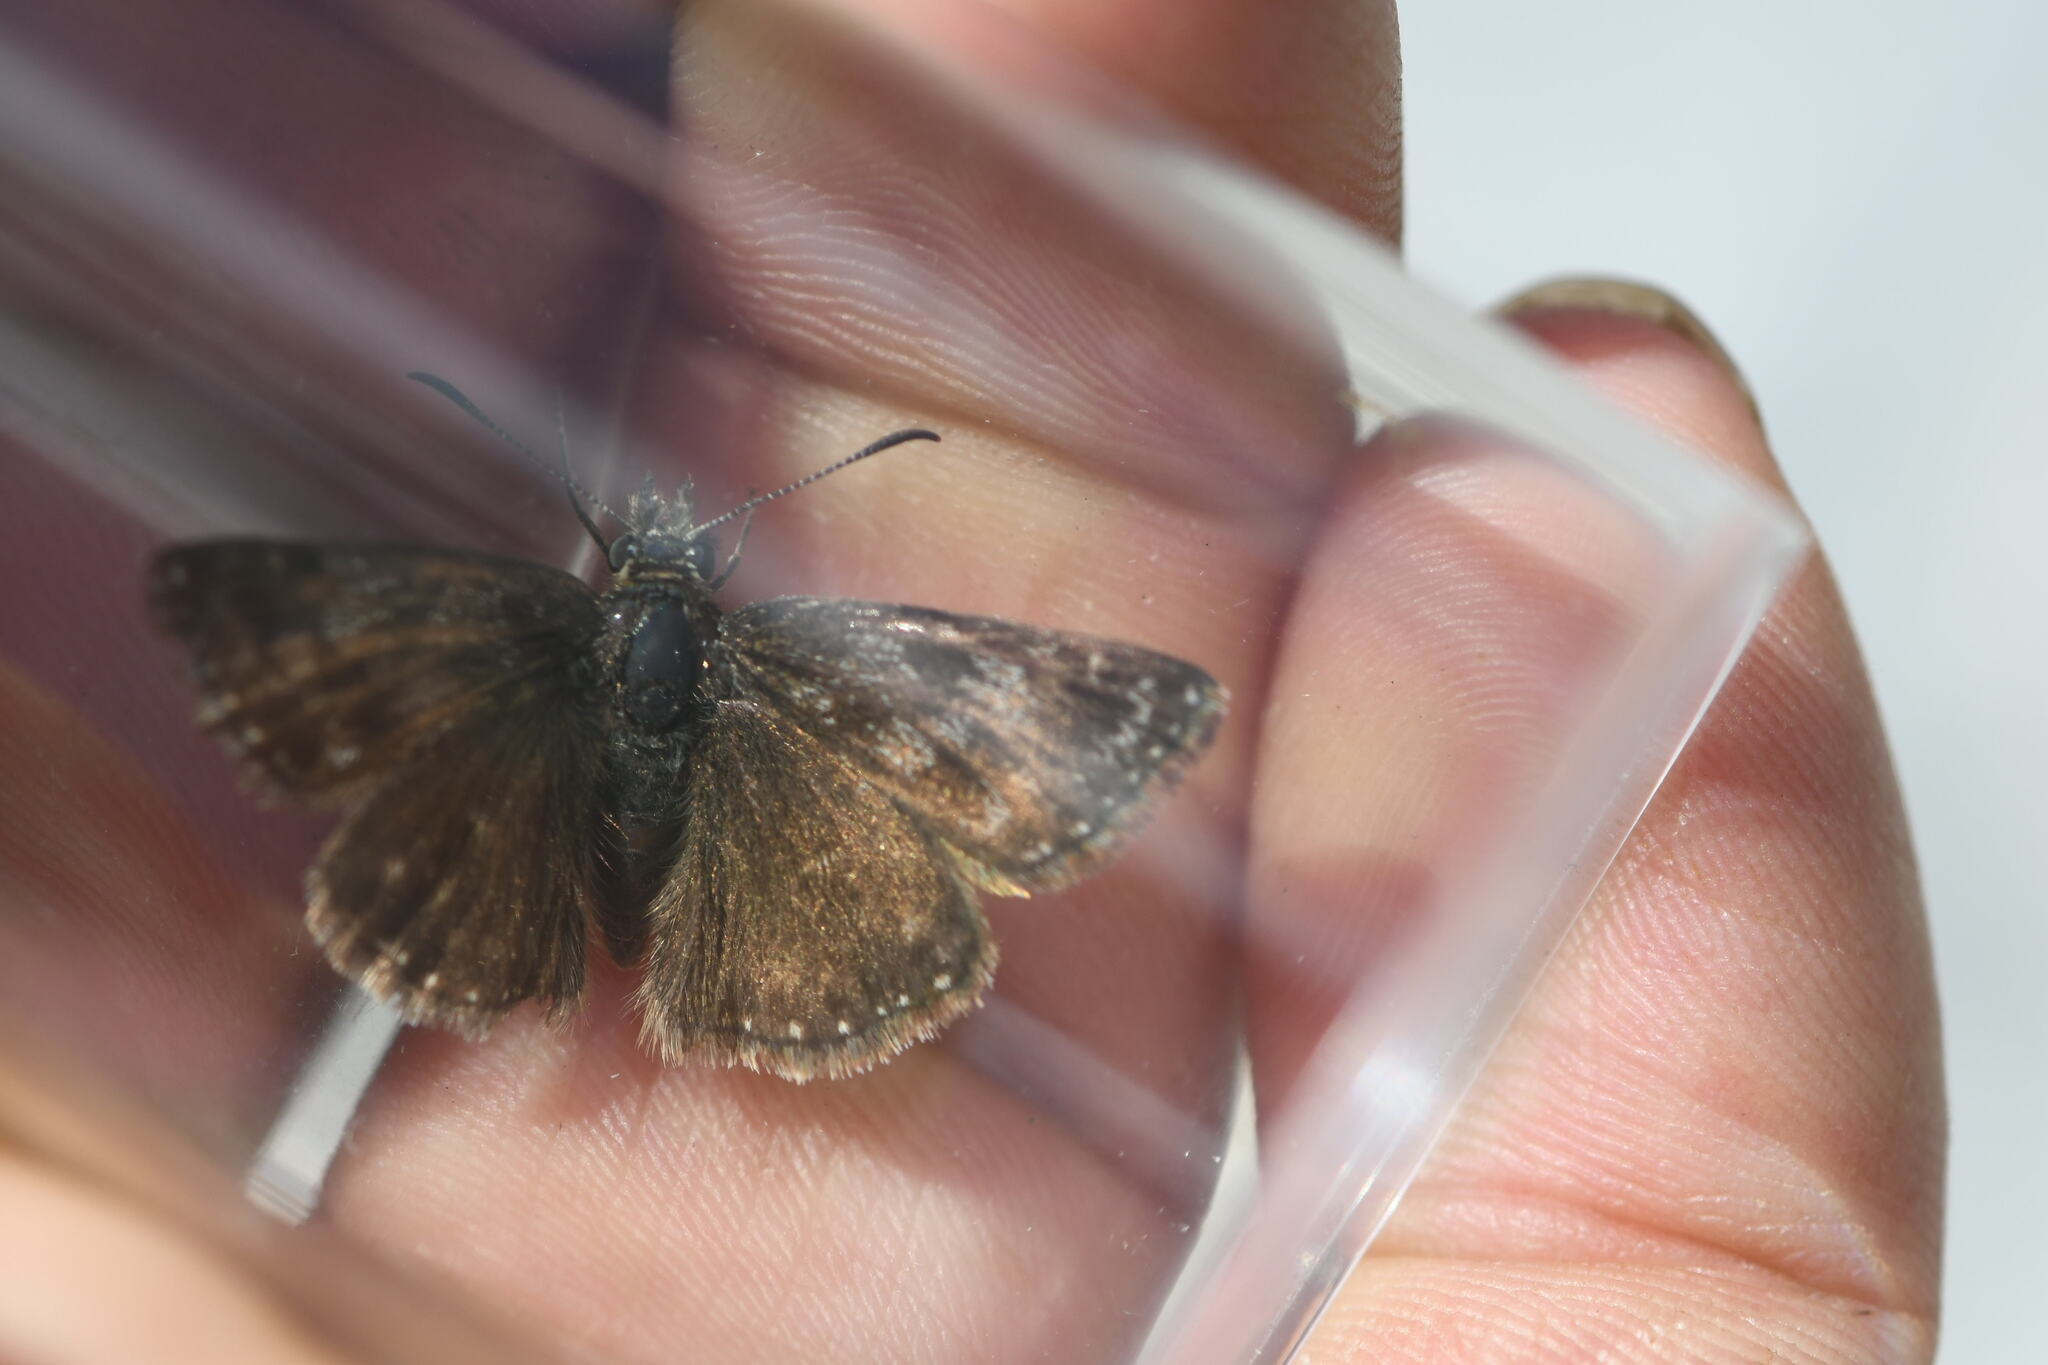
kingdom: Animalia
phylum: Arthropoda
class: Insecta
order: Lepidoptera
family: Hesperiidae
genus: Erynnis
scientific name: Erynnis tages
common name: Dingy skipper
